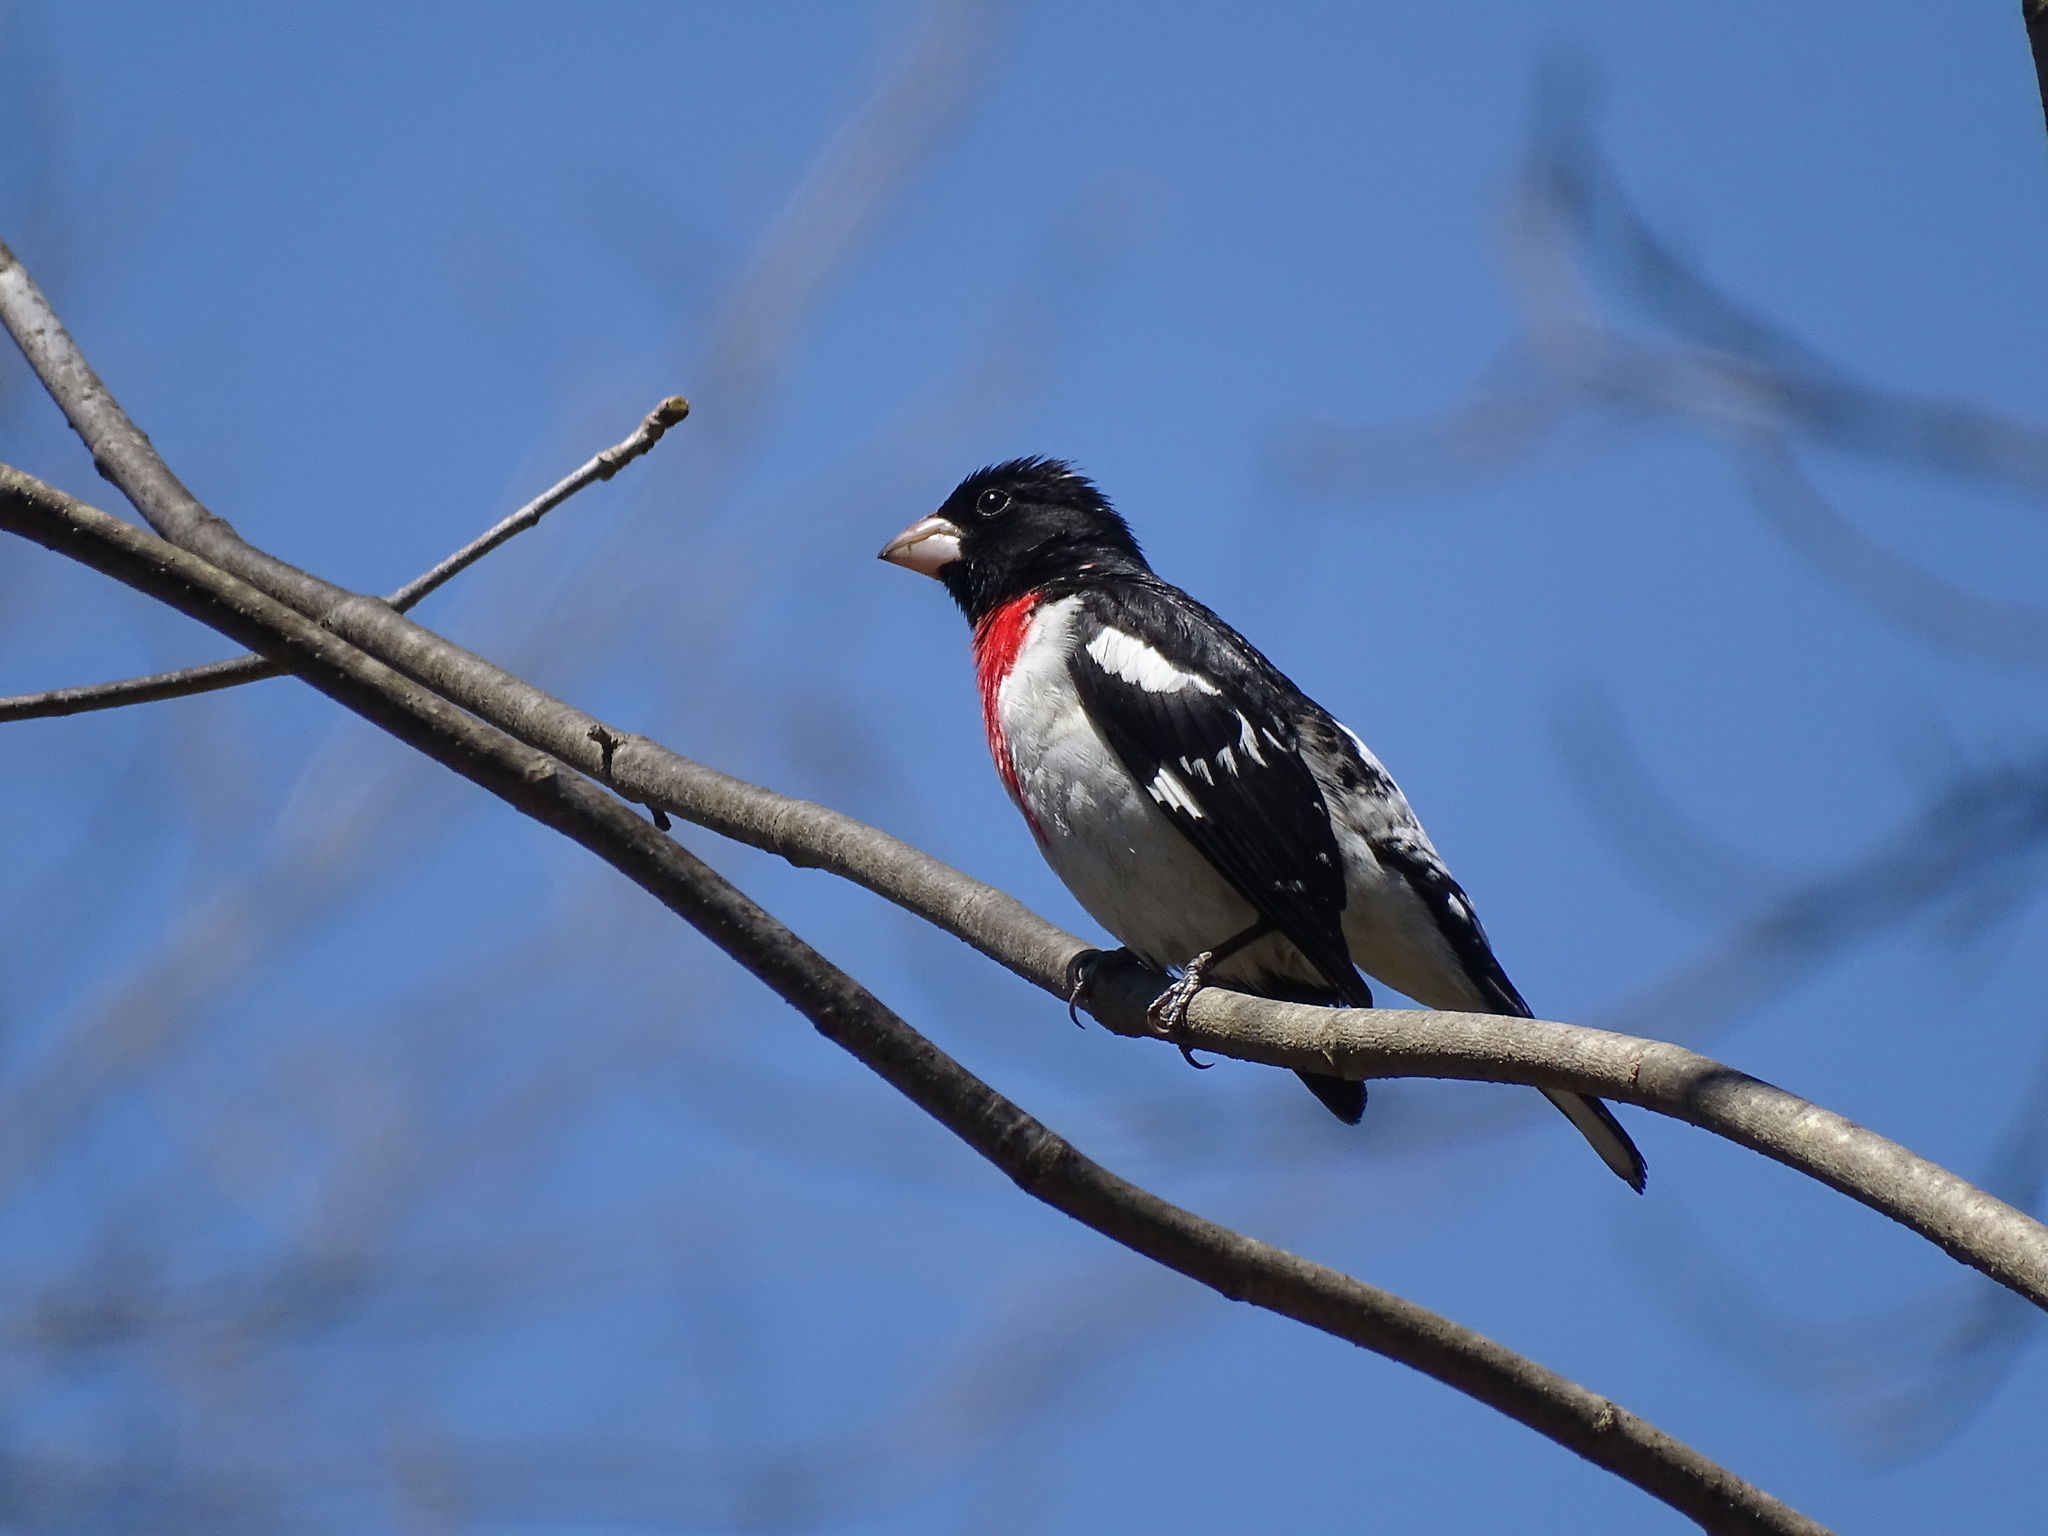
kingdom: Animalia
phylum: Chordata
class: Aves
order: Passeriformes
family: Cardinalidae
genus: Pheucticus
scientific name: Pheucticus ludovicianus
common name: Rose-breasted grosbeak
